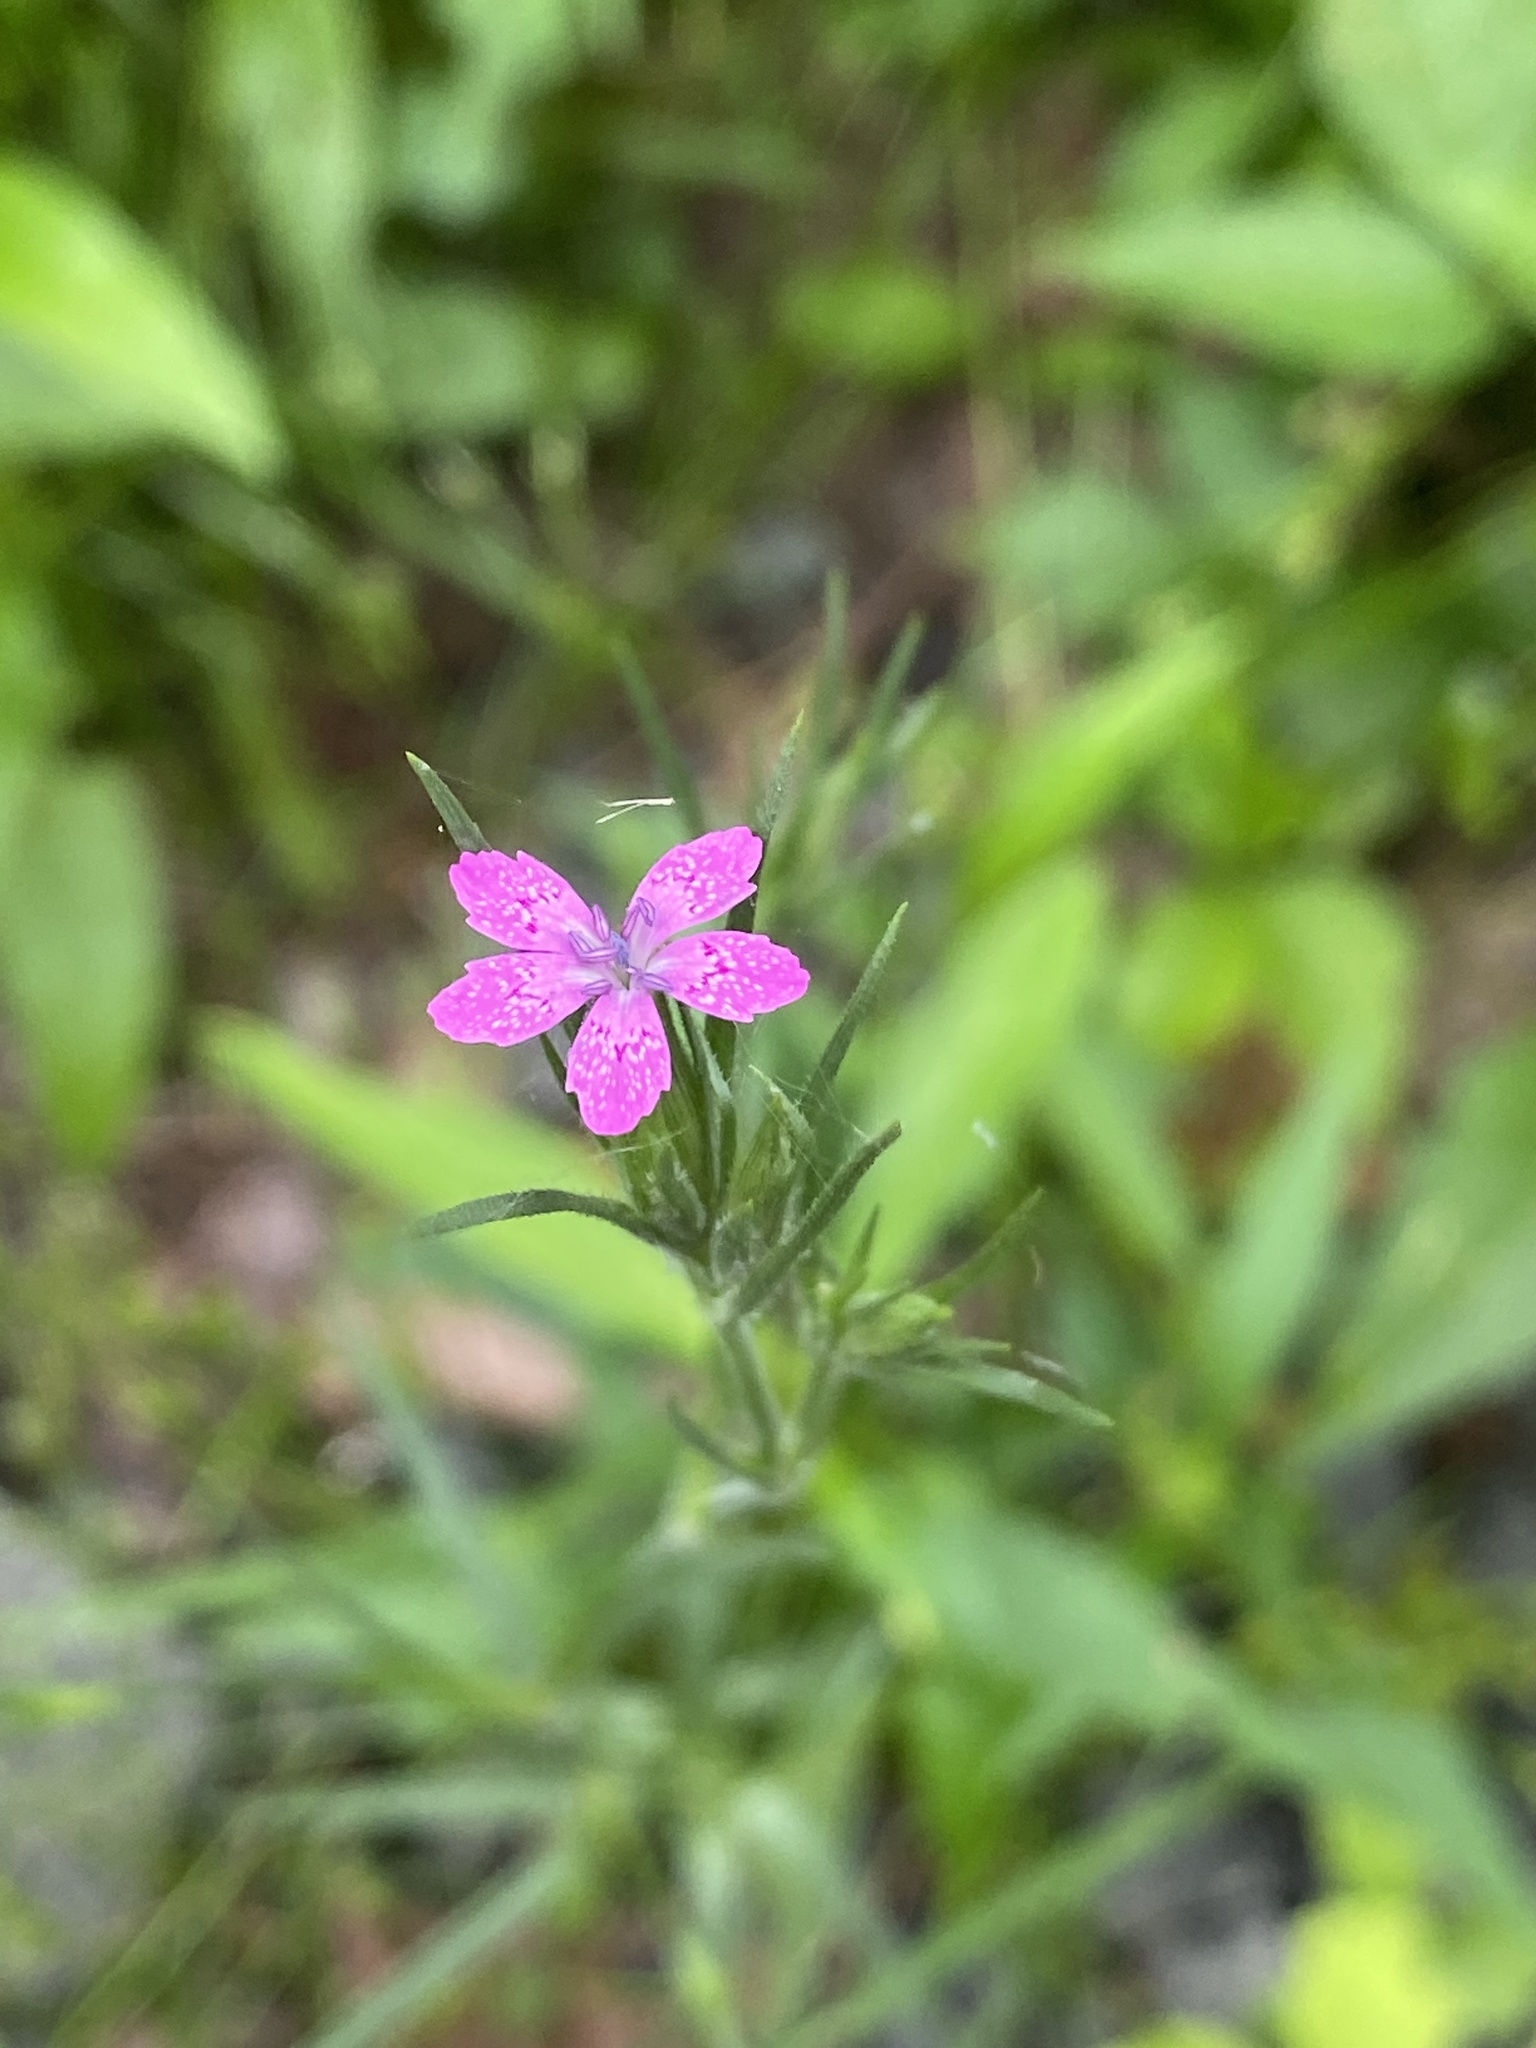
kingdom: Plantae
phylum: Tracheophyta
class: Magnoliopsida
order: Caryophyllales
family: Caryophyllaceae
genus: Dianthus
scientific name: Dianthus armeria
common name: Deptford pink
